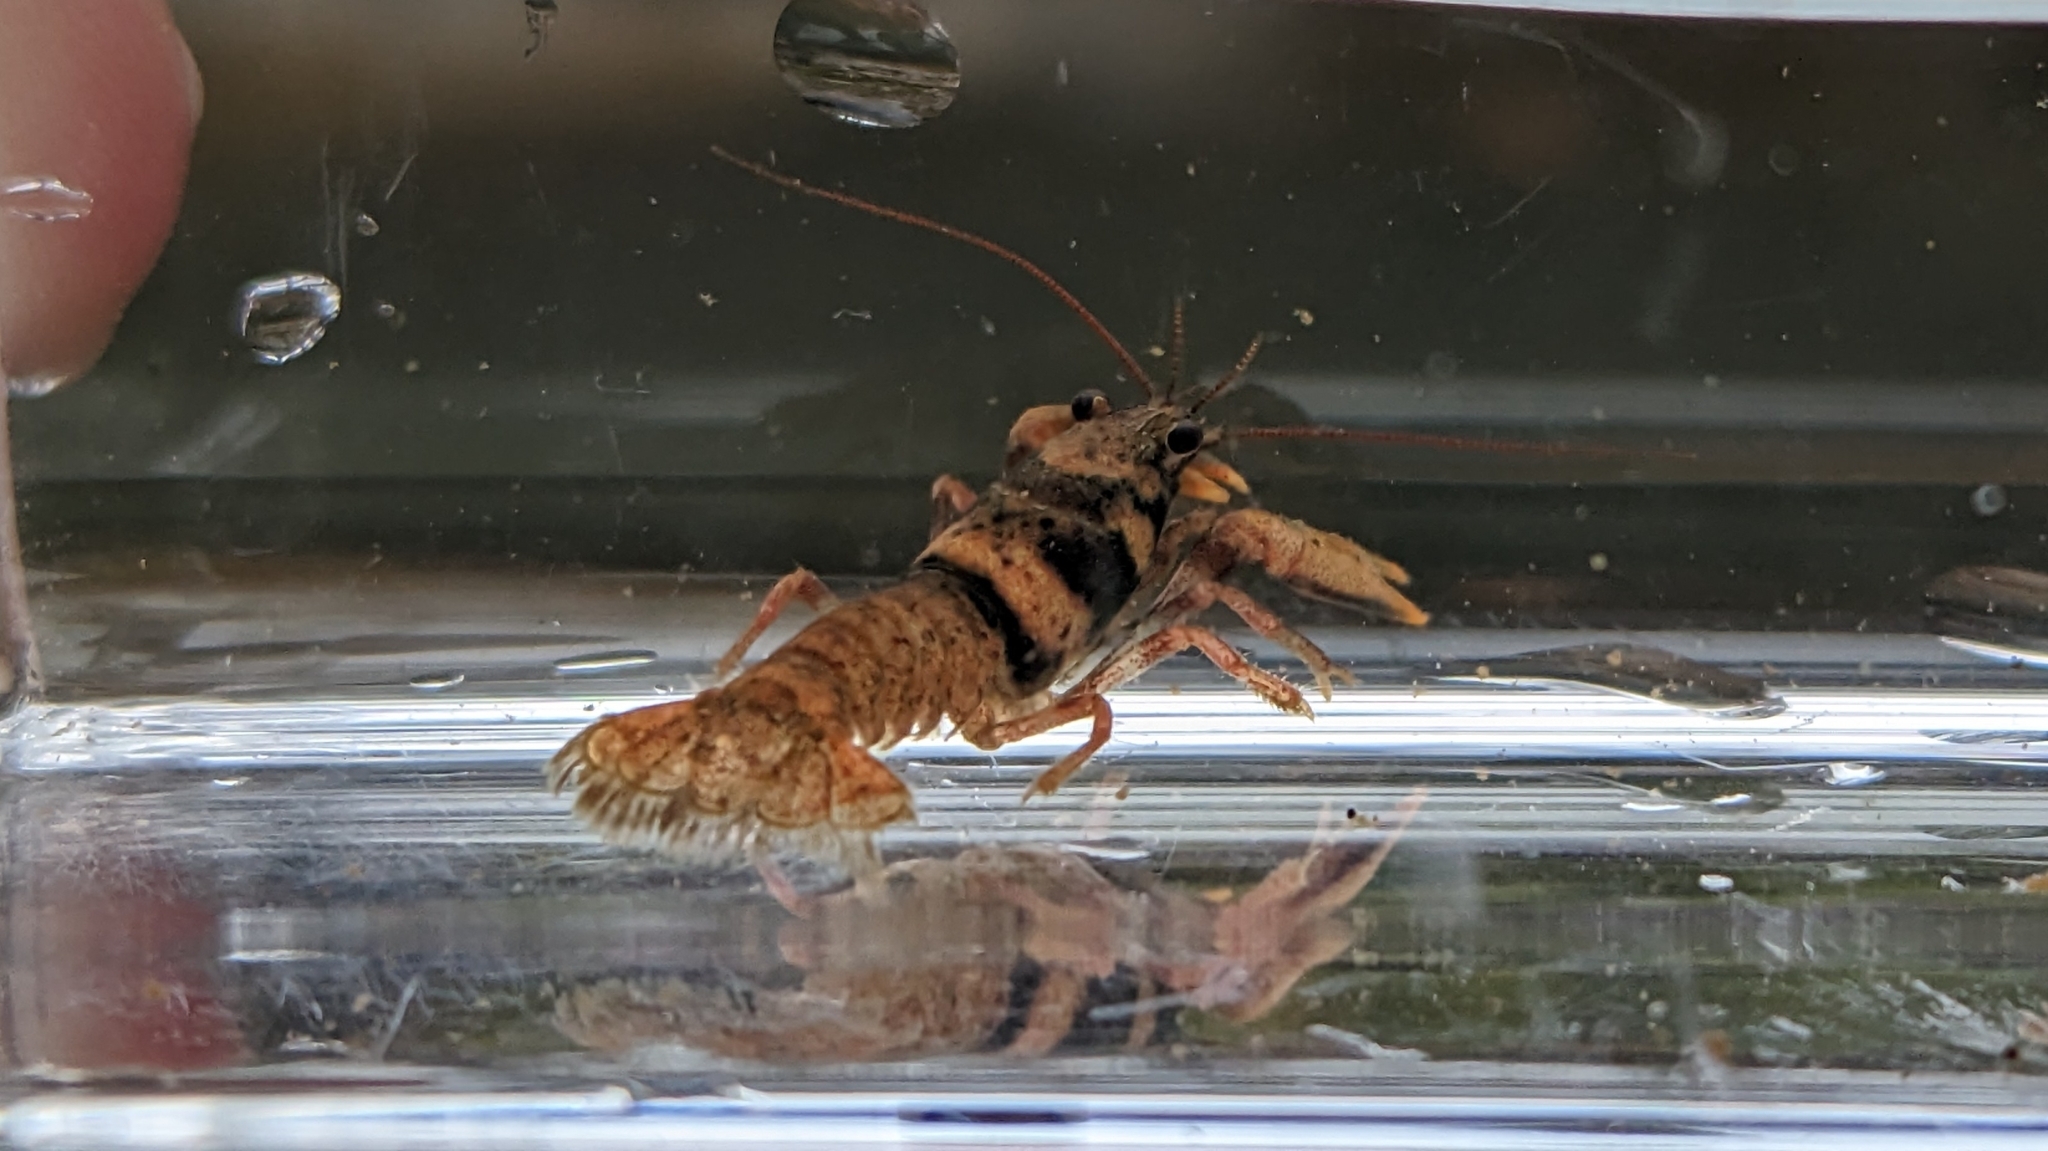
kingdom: Animalia
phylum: Arthropoda
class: Malacostraca
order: Decapoda
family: Cambaridae
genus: Faxonius
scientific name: Faxonius compressus
